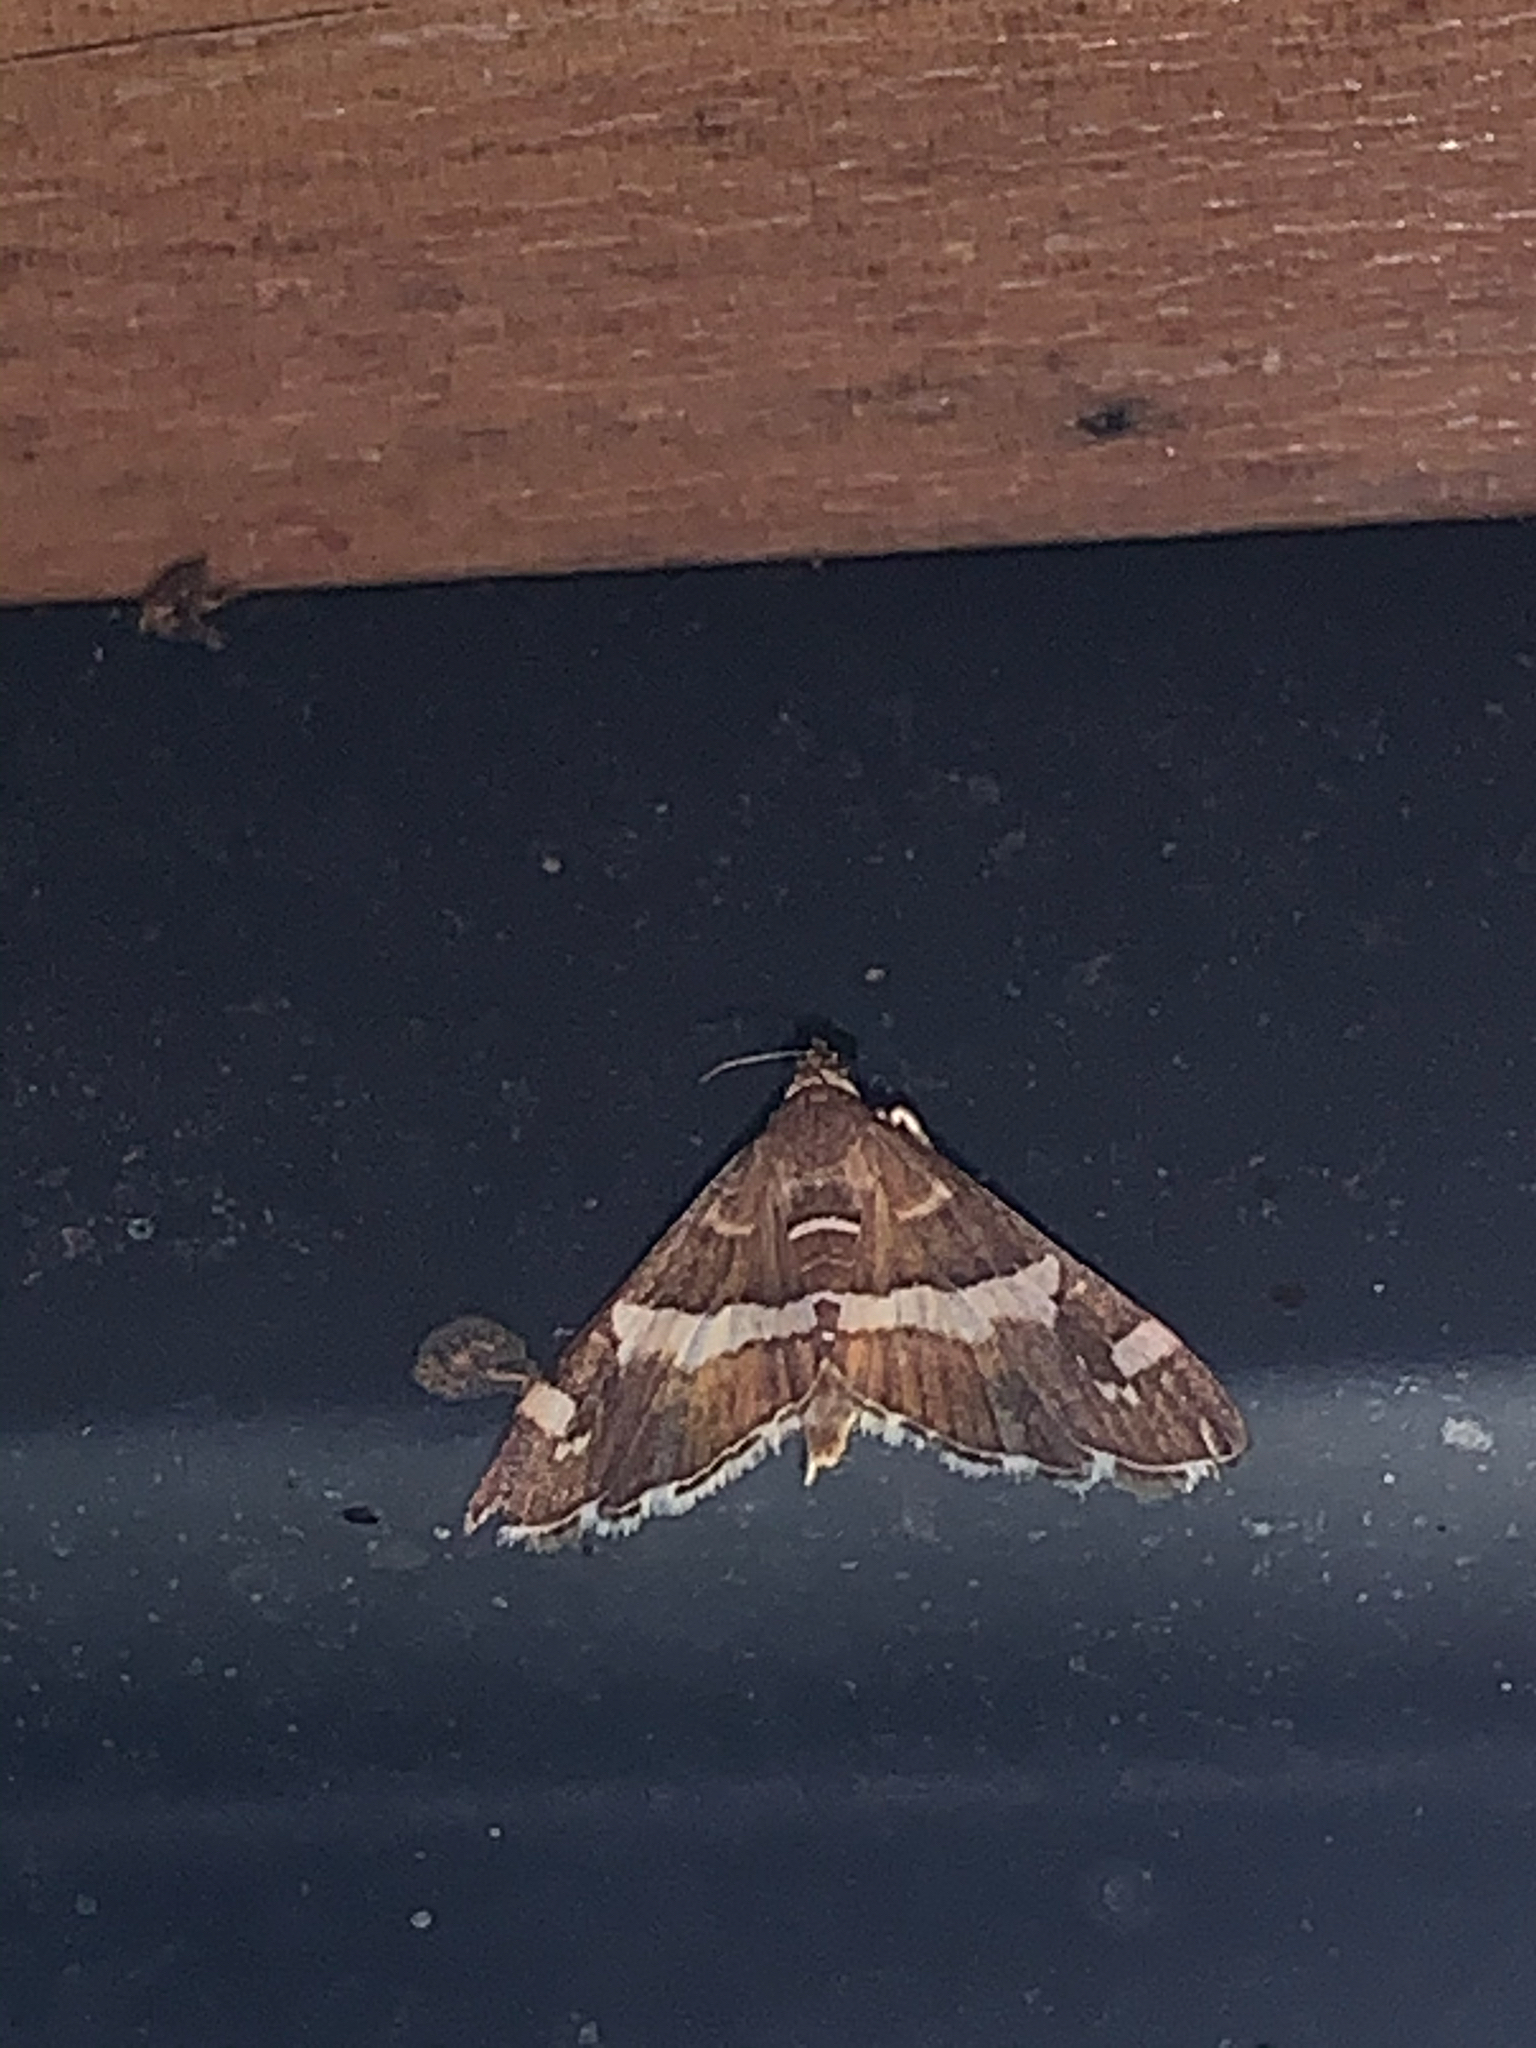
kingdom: Animalia
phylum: Arthropoda
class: Insecta
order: Lepidoptera
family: Crambidae
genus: Spoladea
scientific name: Spoladea recurvalis
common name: Beet webworm moth
